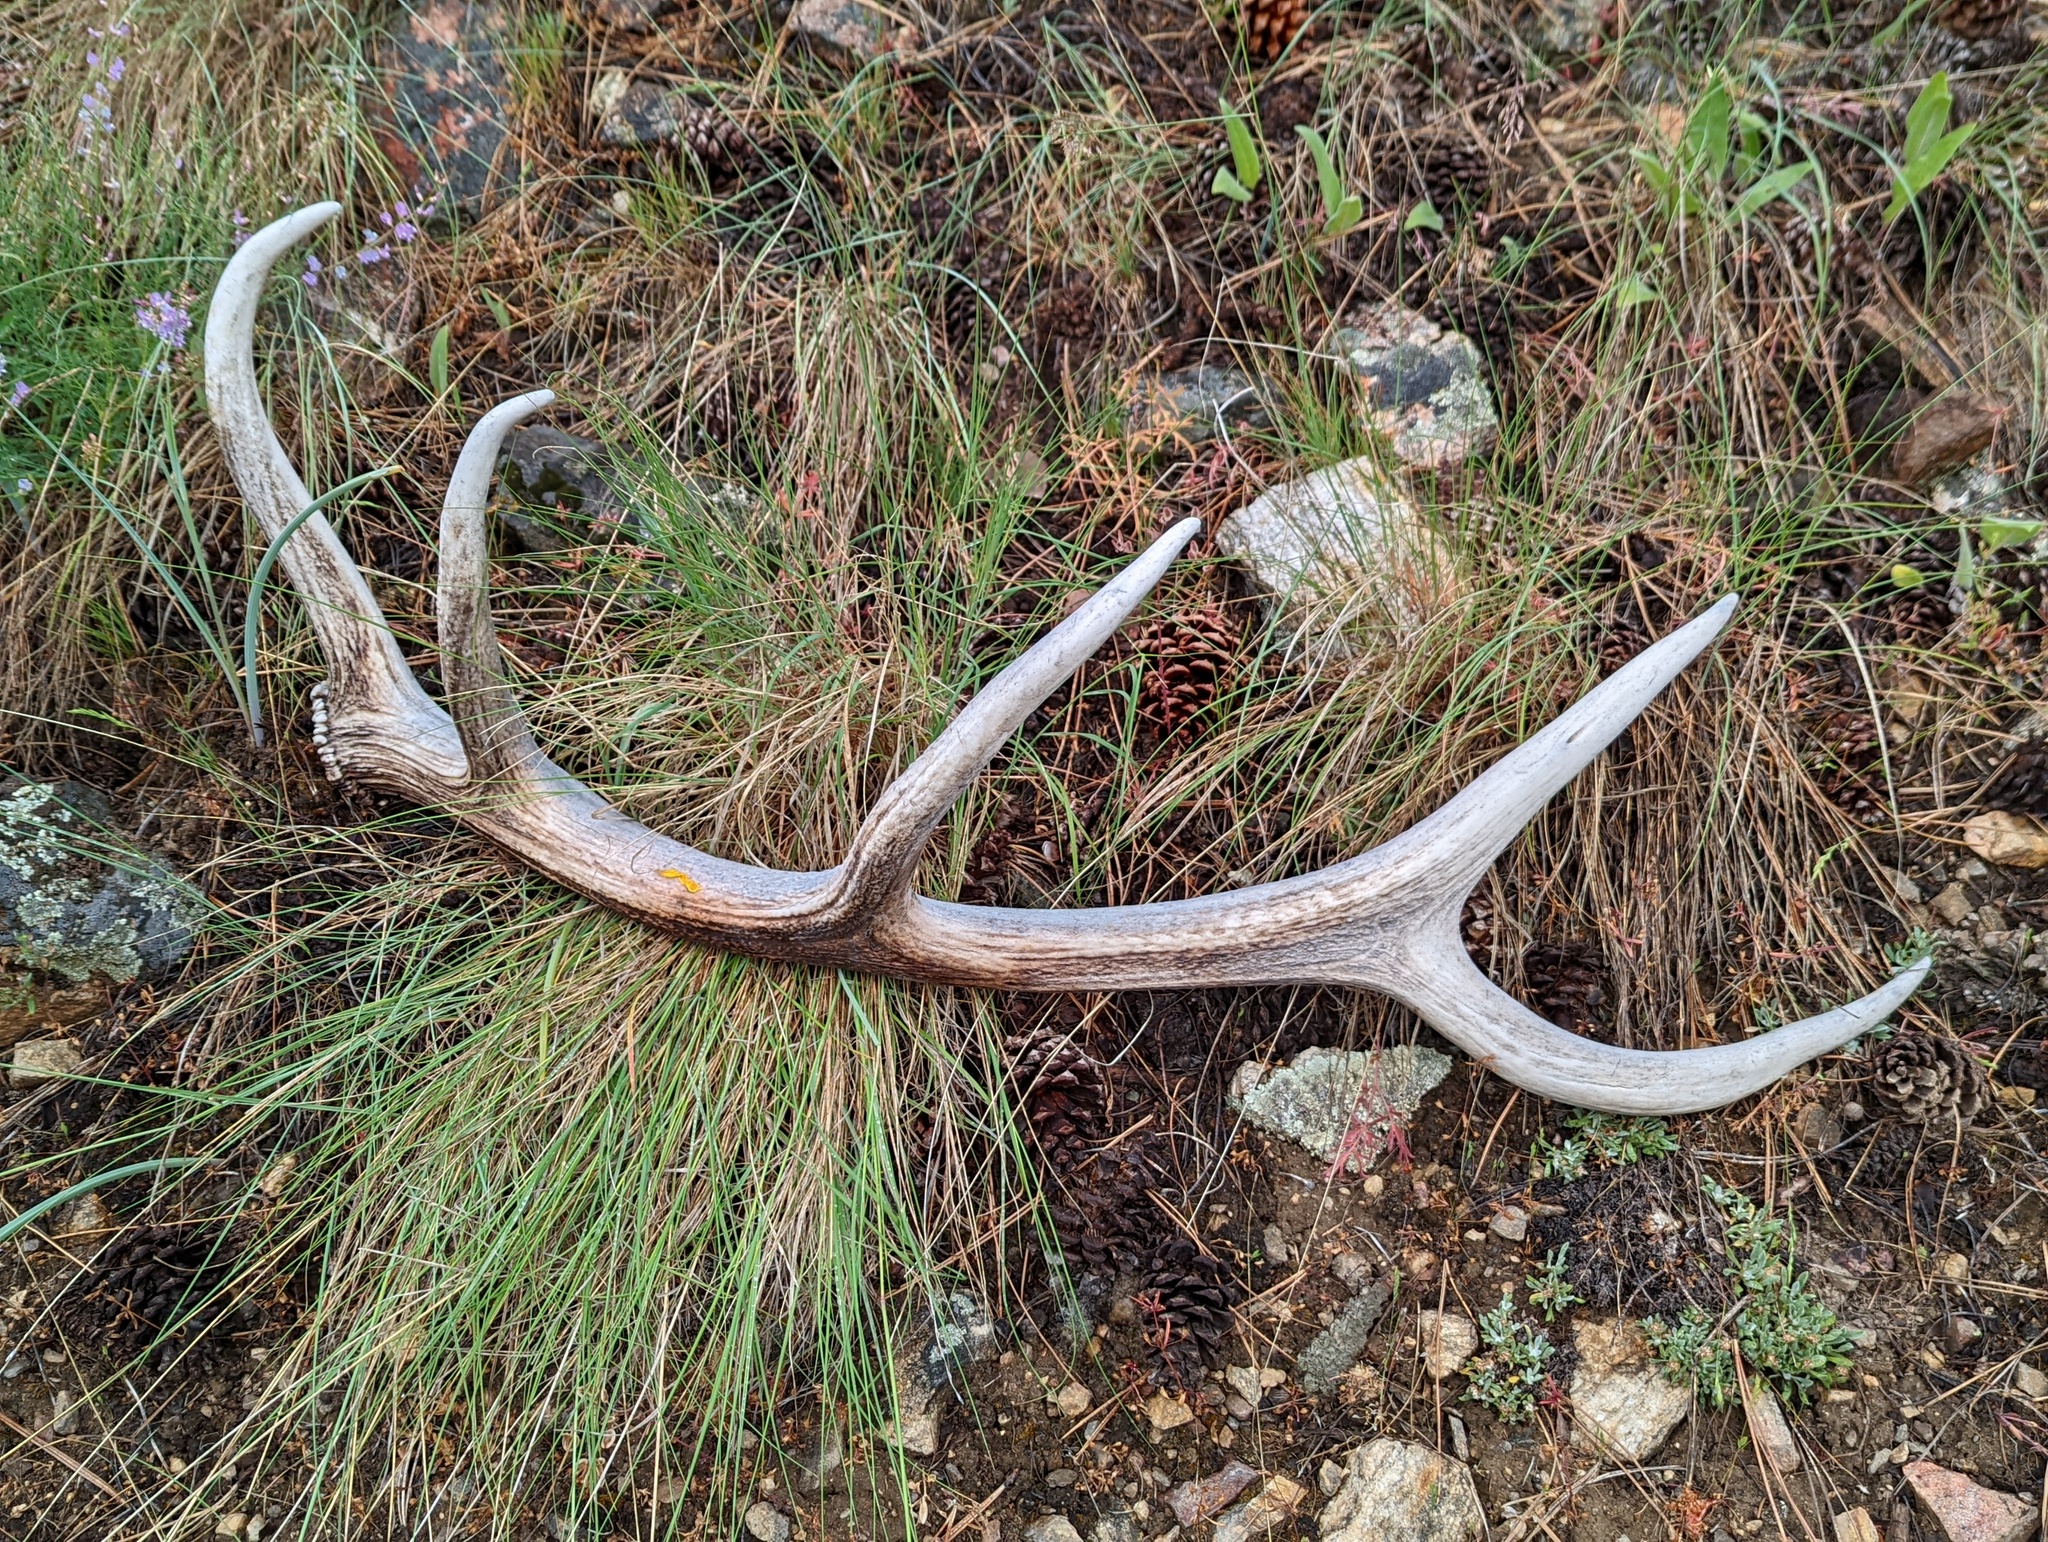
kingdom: Animalia
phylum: Chordata
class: Mammalia
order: Artiodactyla
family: Cervidae
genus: Cervus
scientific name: Cervus elaphus
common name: Red deer
